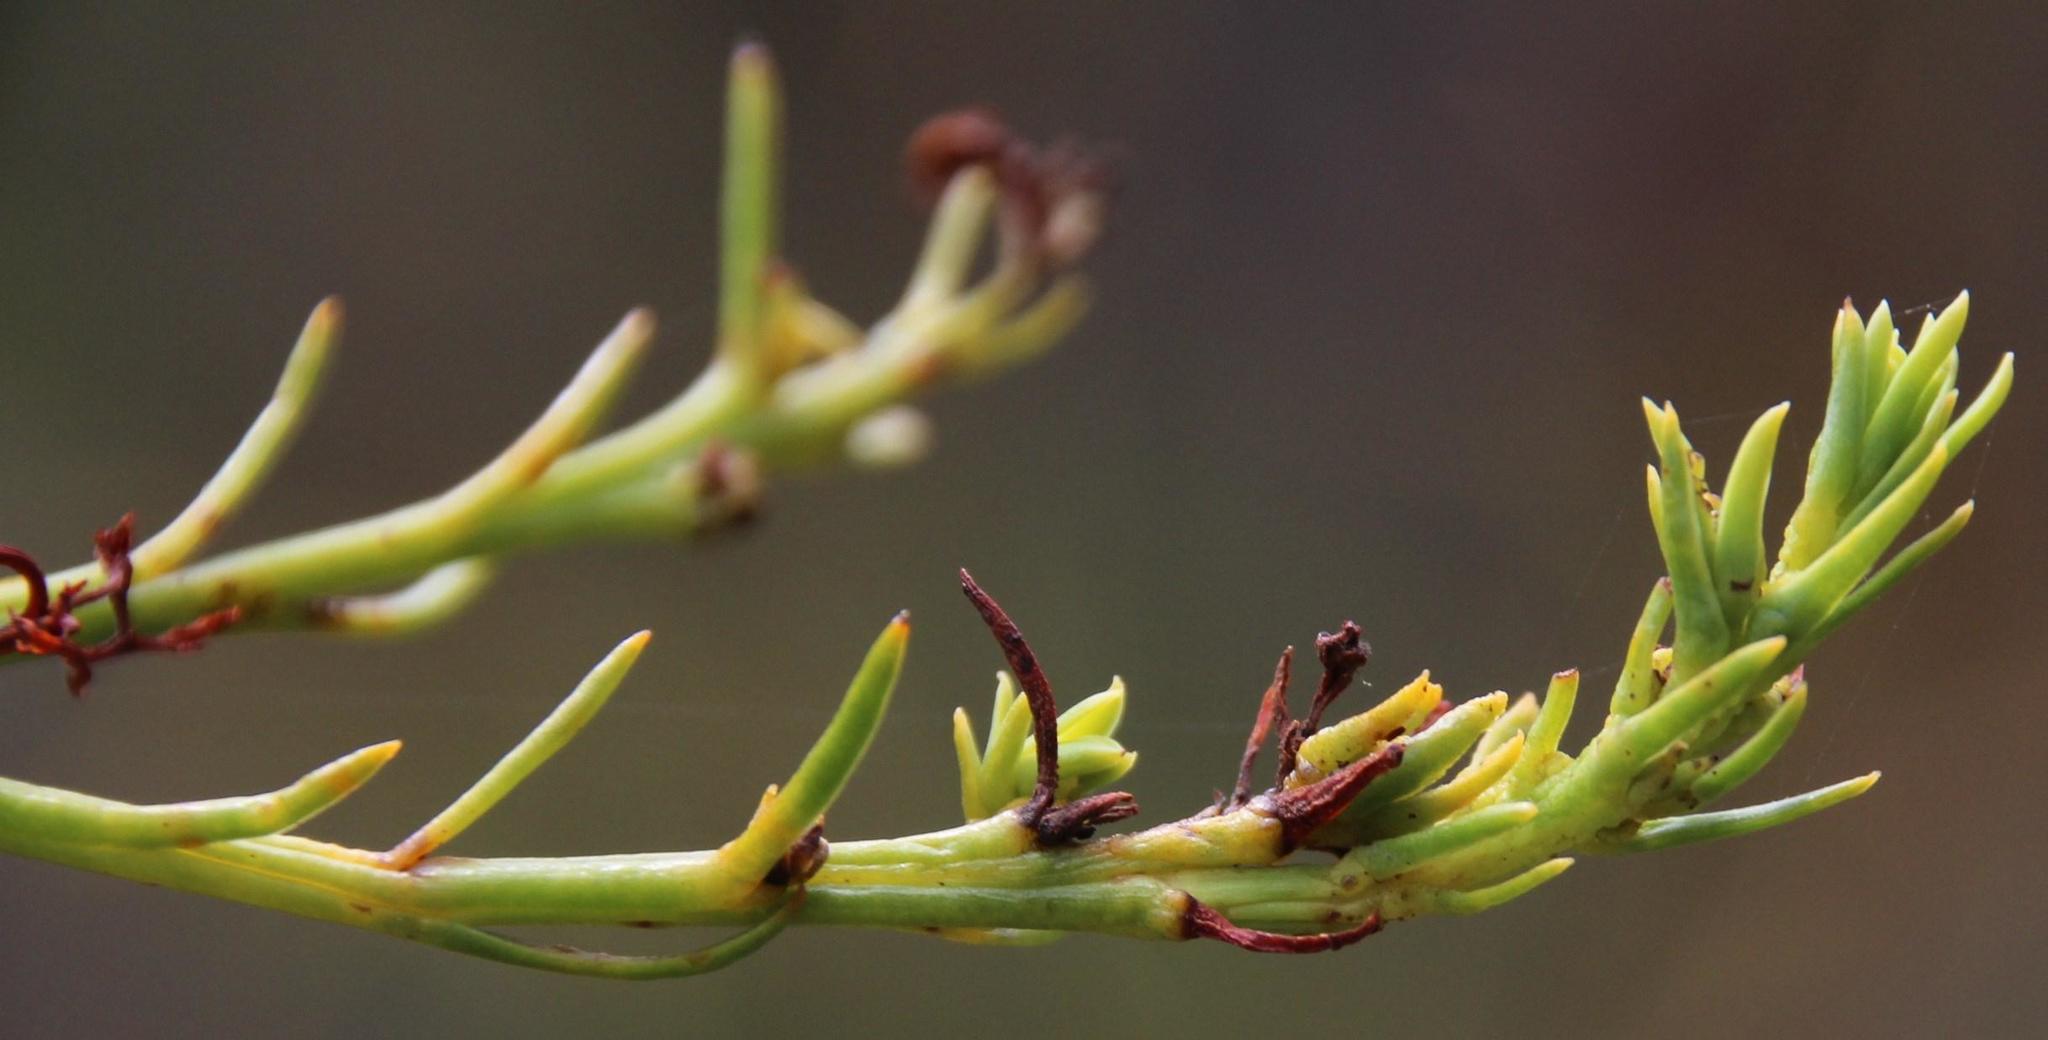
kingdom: Plantae
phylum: Tracheophyta
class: Magnoliopsida
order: Santalales
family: Thesiaceae
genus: Thesium
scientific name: Thesium strictum
